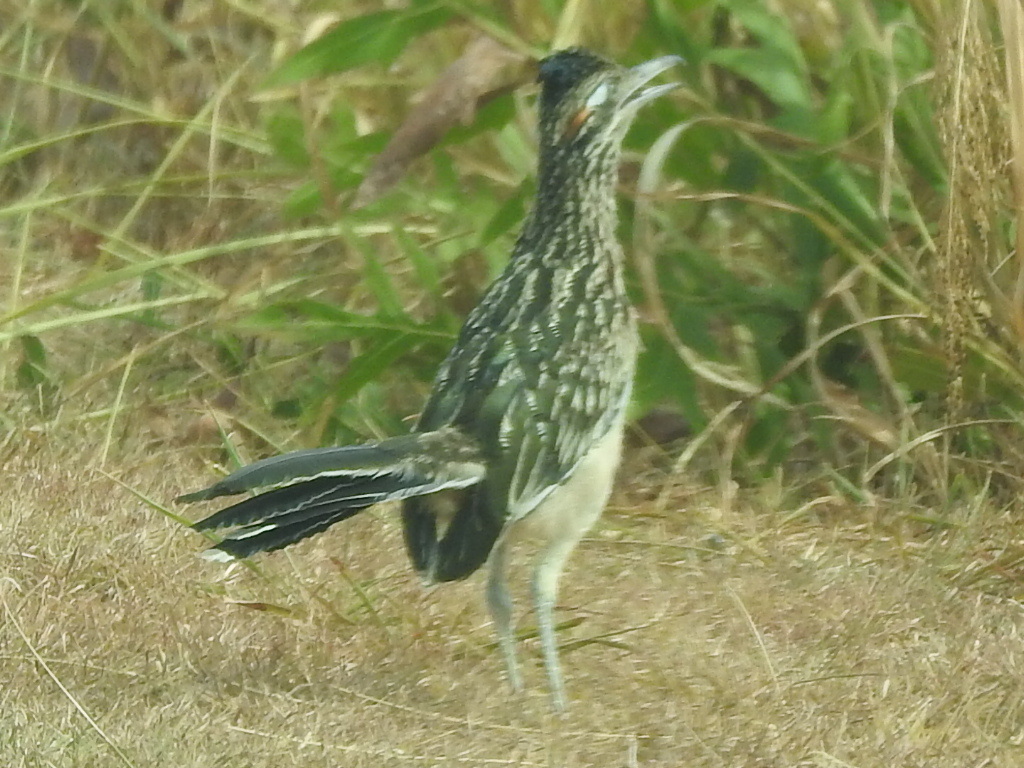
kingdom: Animalia
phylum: Chordata
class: Aves
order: Cuculiformes
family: Cuculidae
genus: Geococcyx
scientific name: Geococcyx californianus
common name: Greater roadrunner
